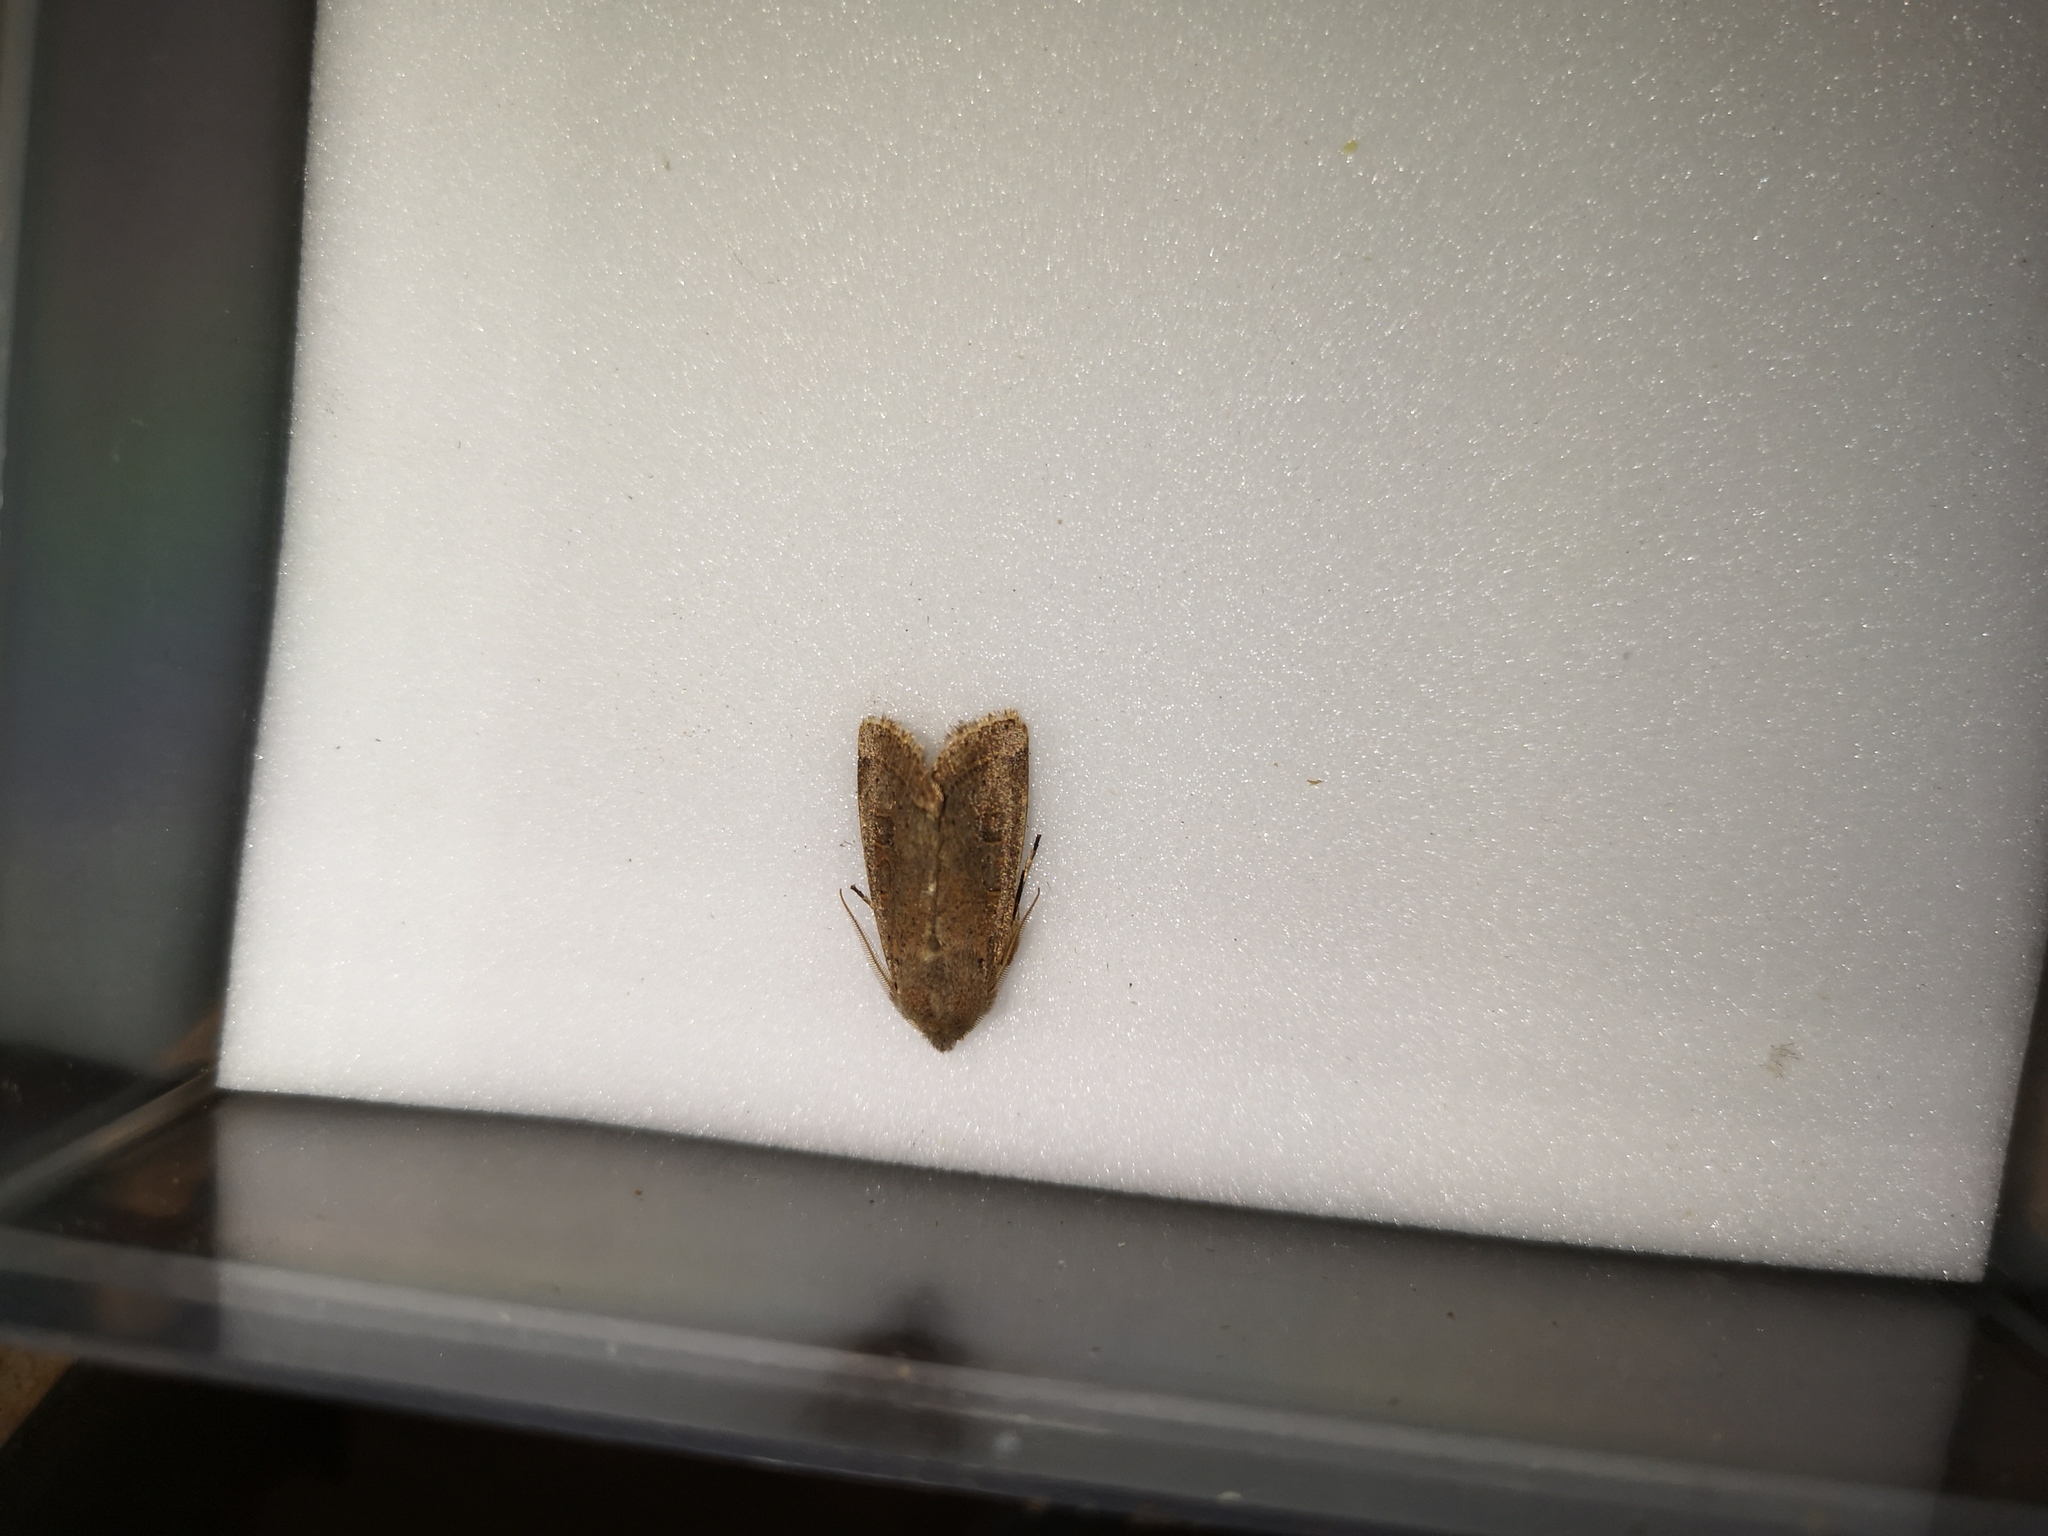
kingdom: Animalia
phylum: Arthropoda
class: Insecta
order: Lepidoptera
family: Noctuidae
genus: Orthosia
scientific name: Orthosia cerasi
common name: Common quaker
